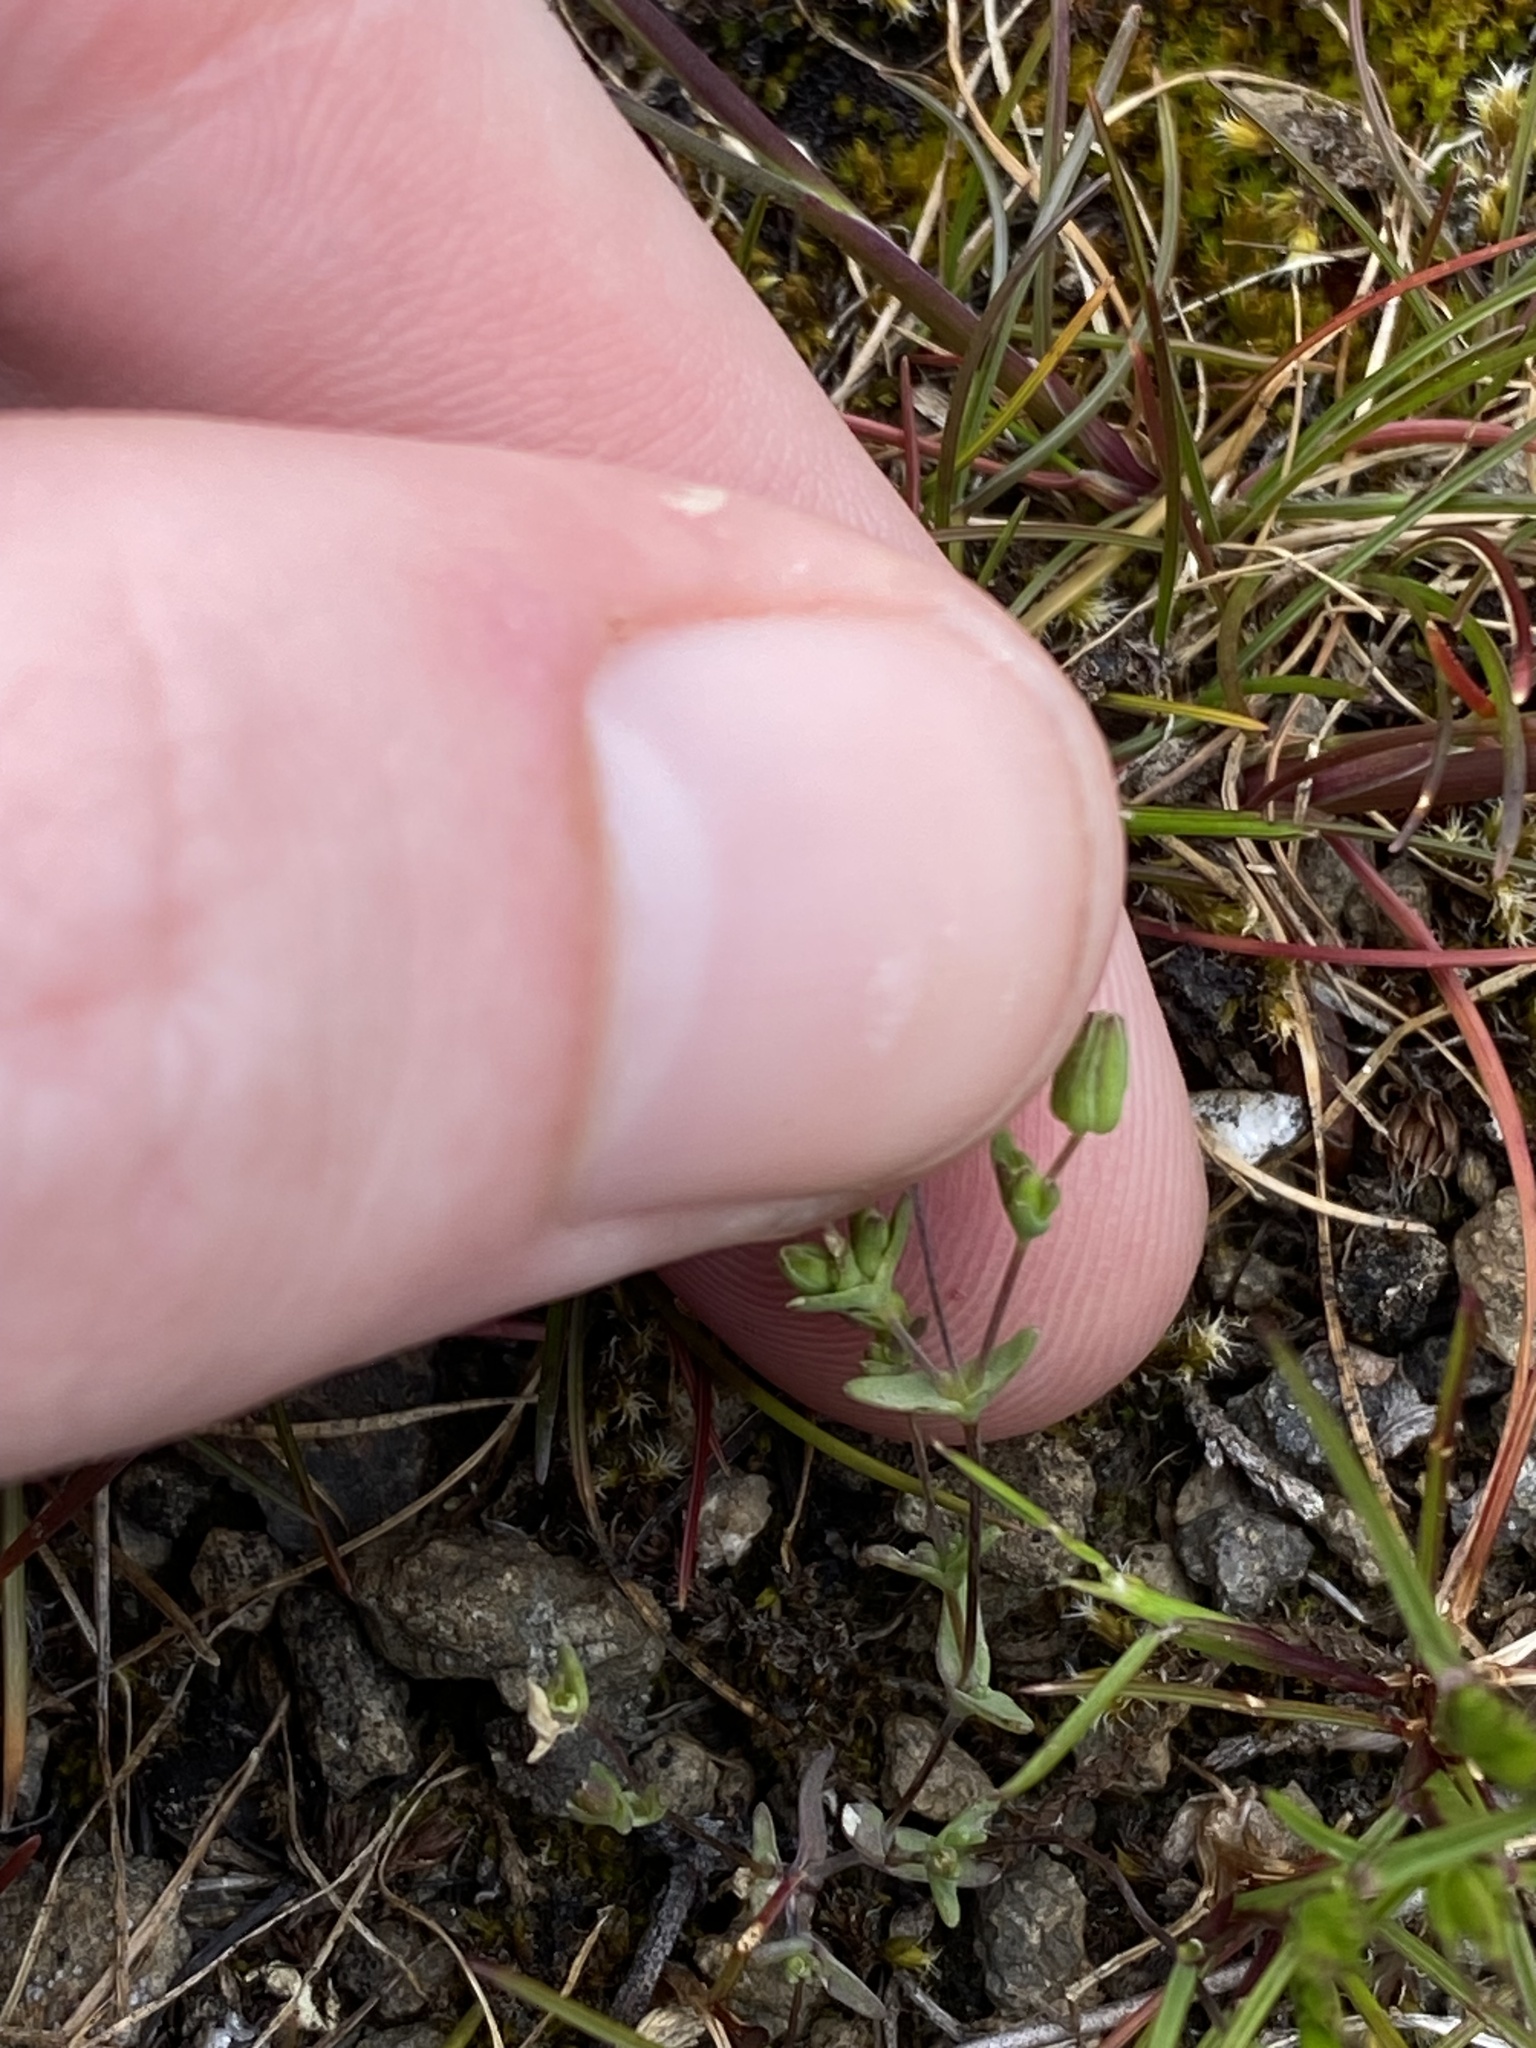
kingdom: Plantae
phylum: Tracheophyta
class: Magnoliopsida
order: Caryophyllales
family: Caryophyllaceae
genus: Sabulina
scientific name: Sabulina californica
